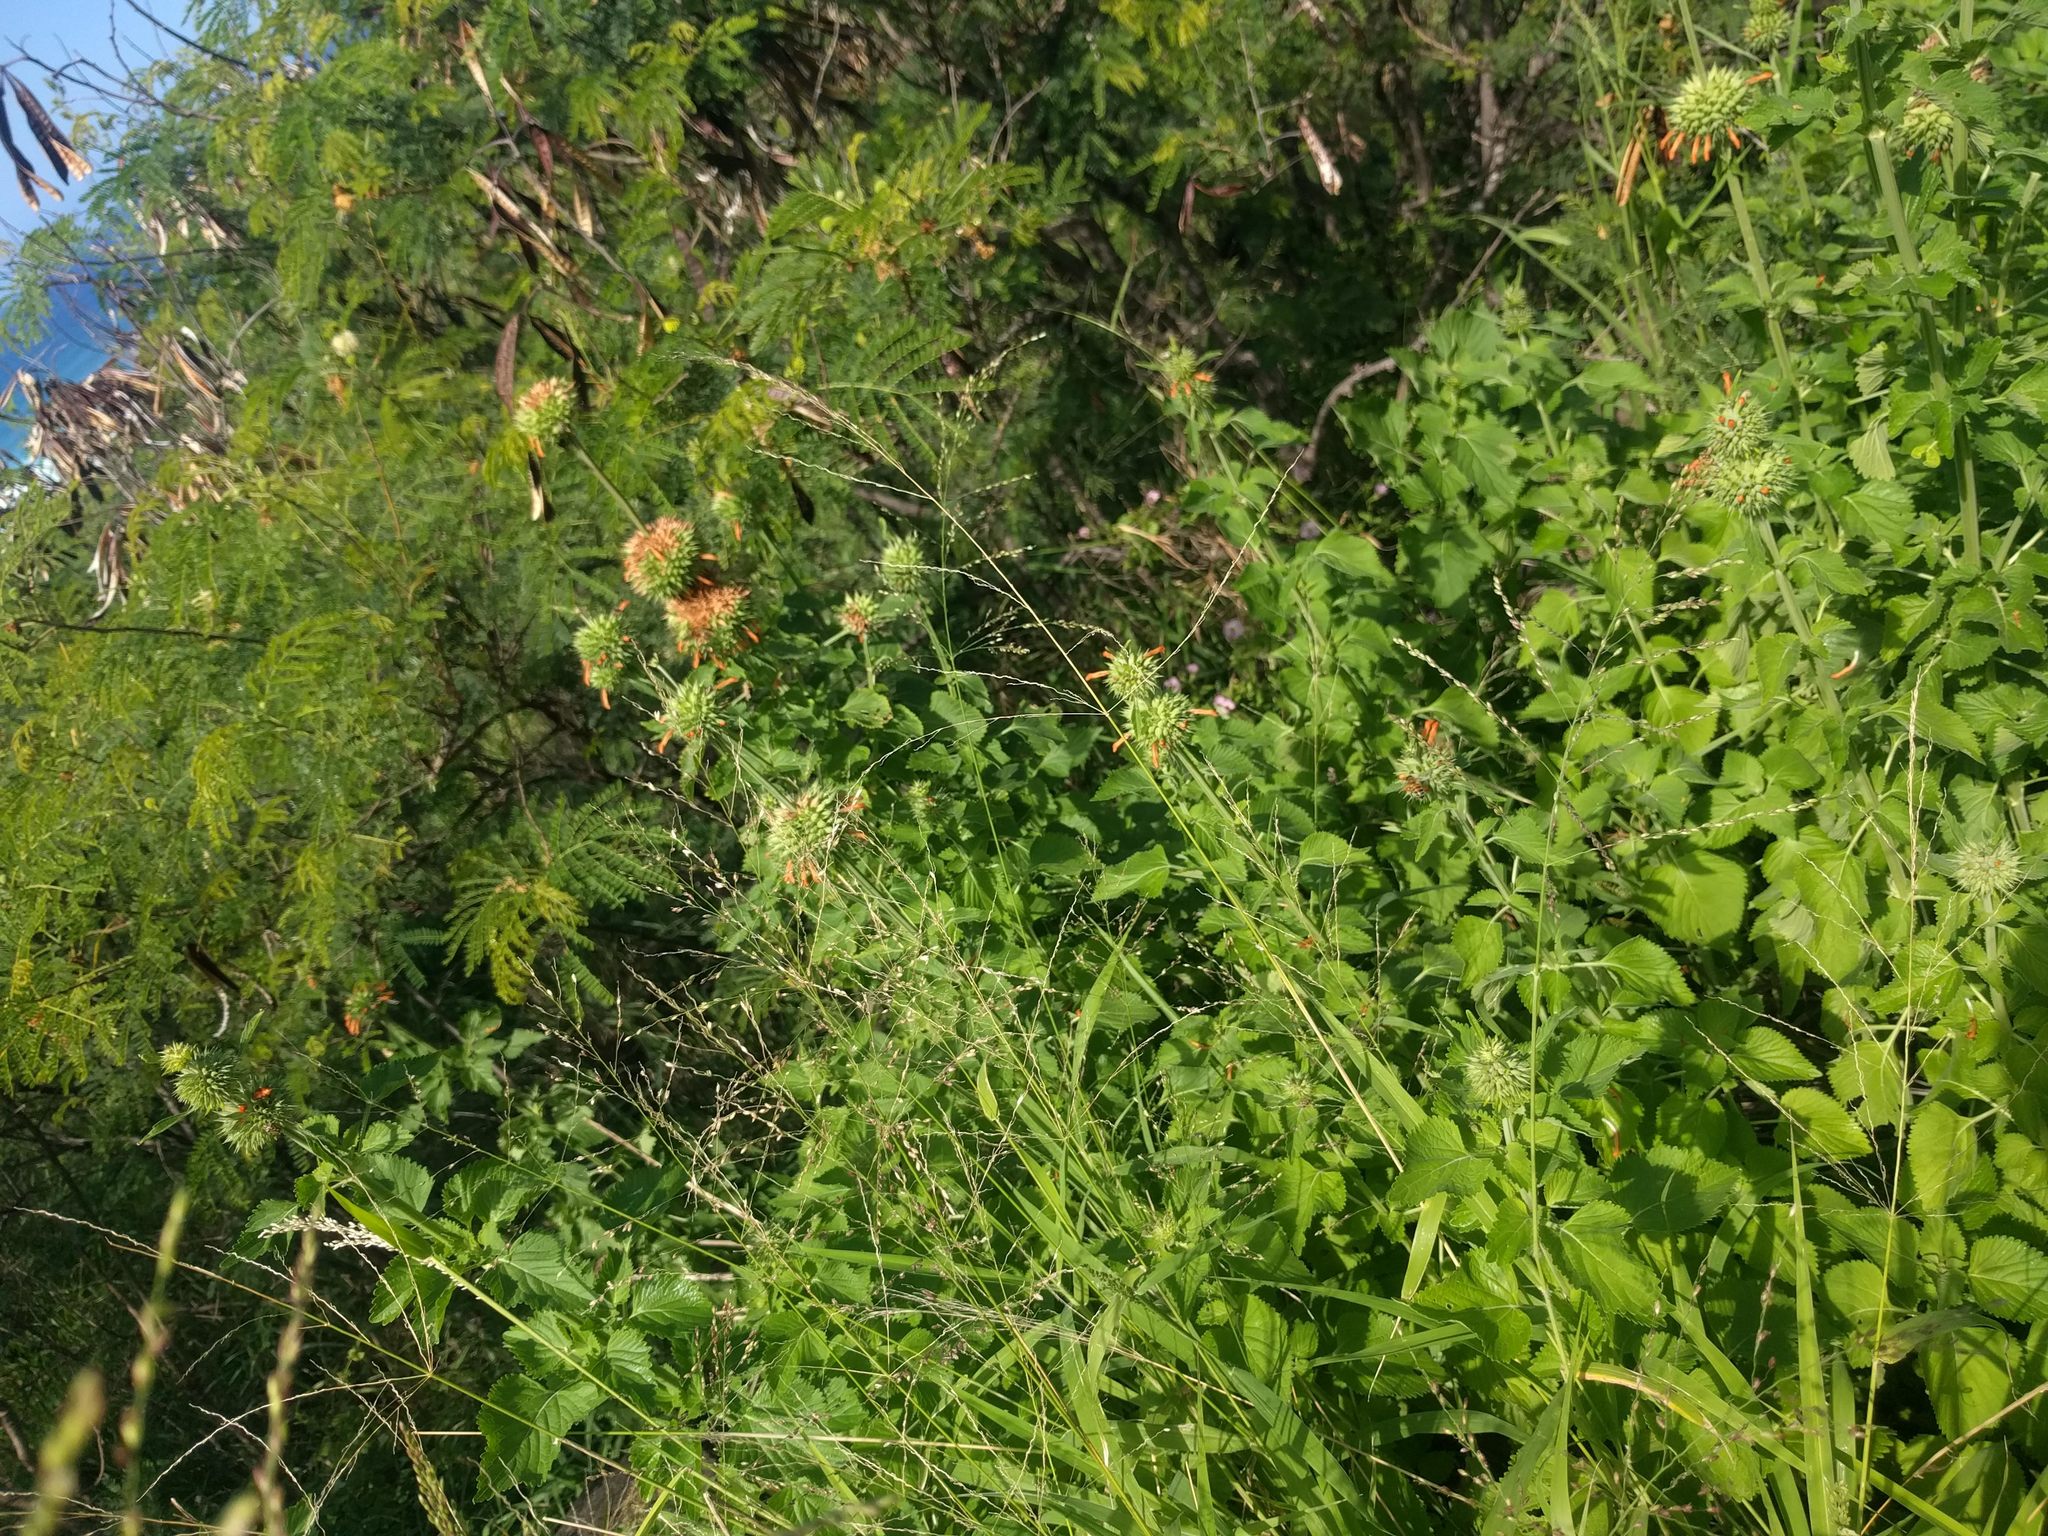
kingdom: Plantae
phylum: Tracheophyta
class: Magnoliopsida
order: Lamiales
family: Lamiaceae
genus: Leonotis
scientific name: Leonotis nepetifolia
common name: Christmas candlestick
